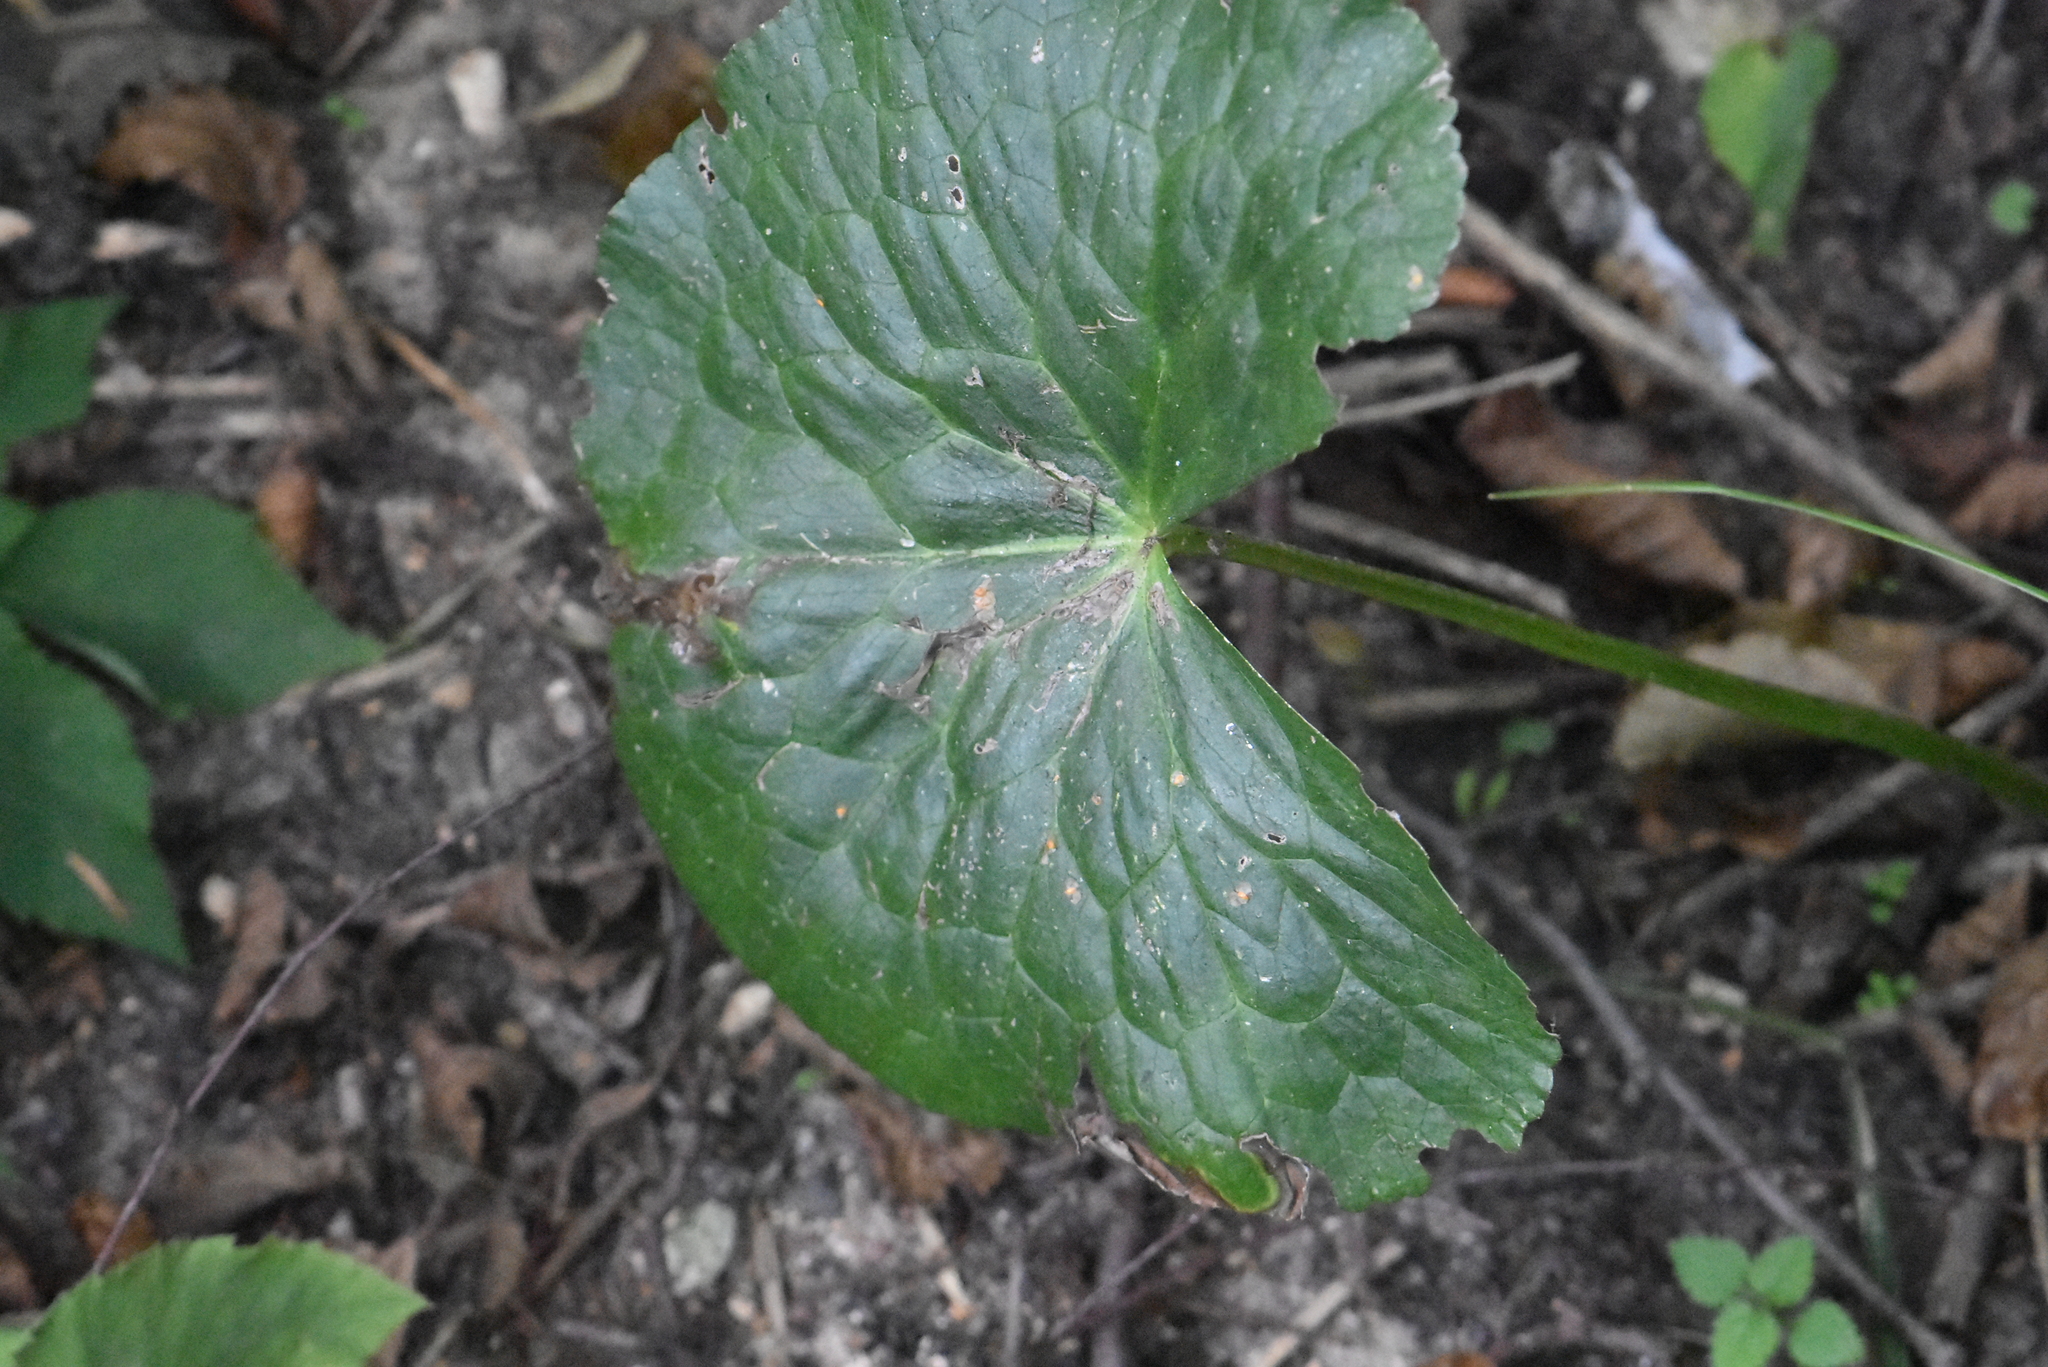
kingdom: Plantae
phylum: Tracheophyta
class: Magnoliopsida
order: Ranunculales
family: Ranunculaceae
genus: Caltha
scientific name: Caltha palustris
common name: Marsh marigold
